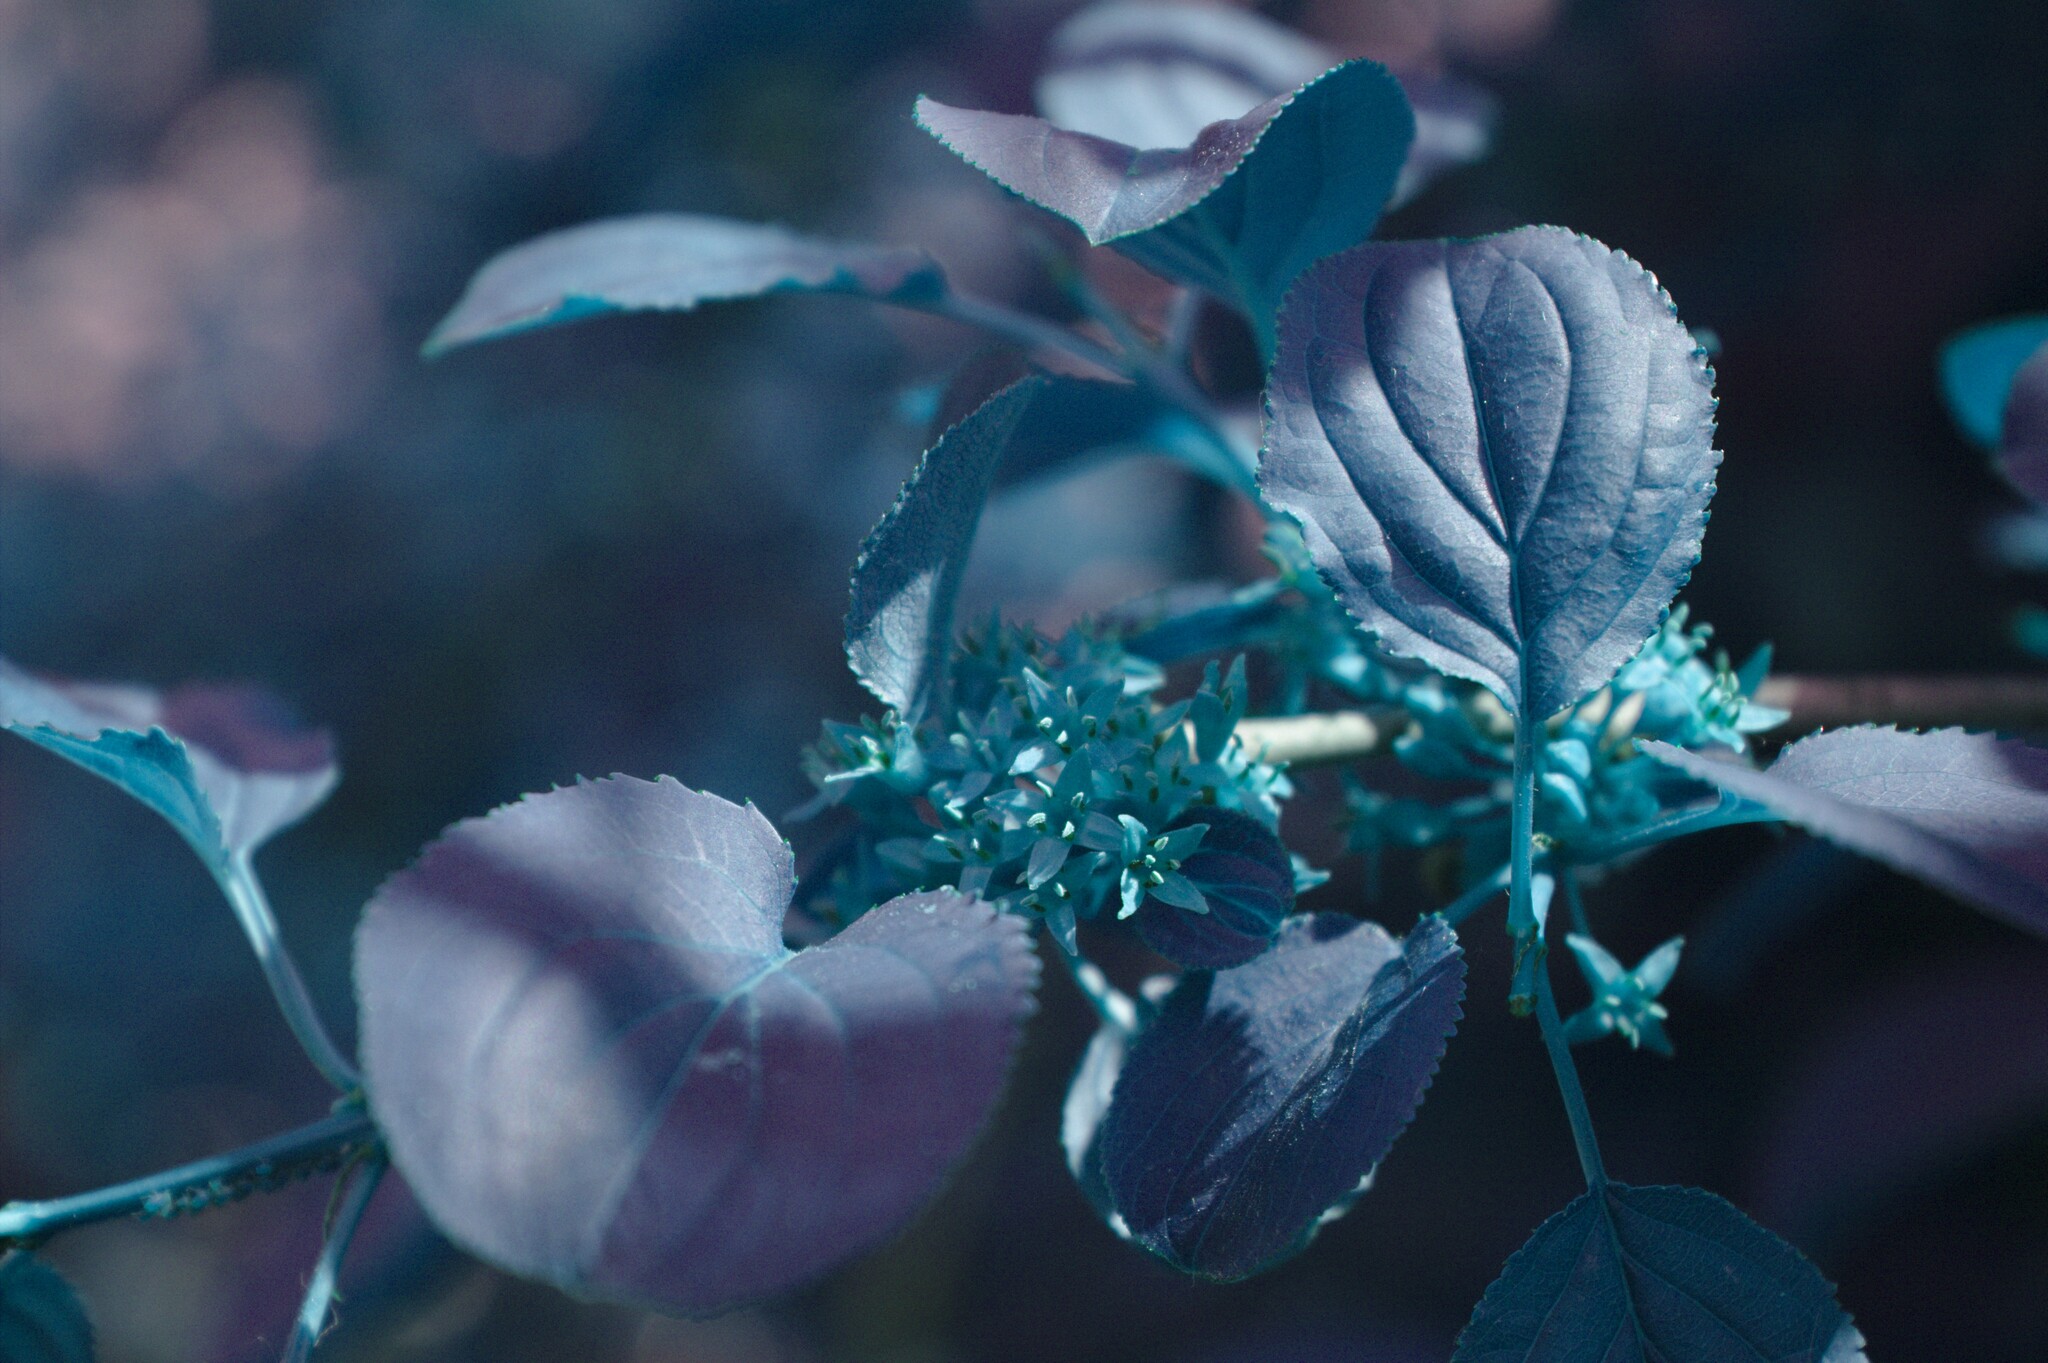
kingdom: Plantae
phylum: Tracheophyta
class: Magnoliopsida
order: Rosales
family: Rhamnaceae
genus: Rhamnus
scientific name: Rhamnus cathartica
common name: Common buckthorn
